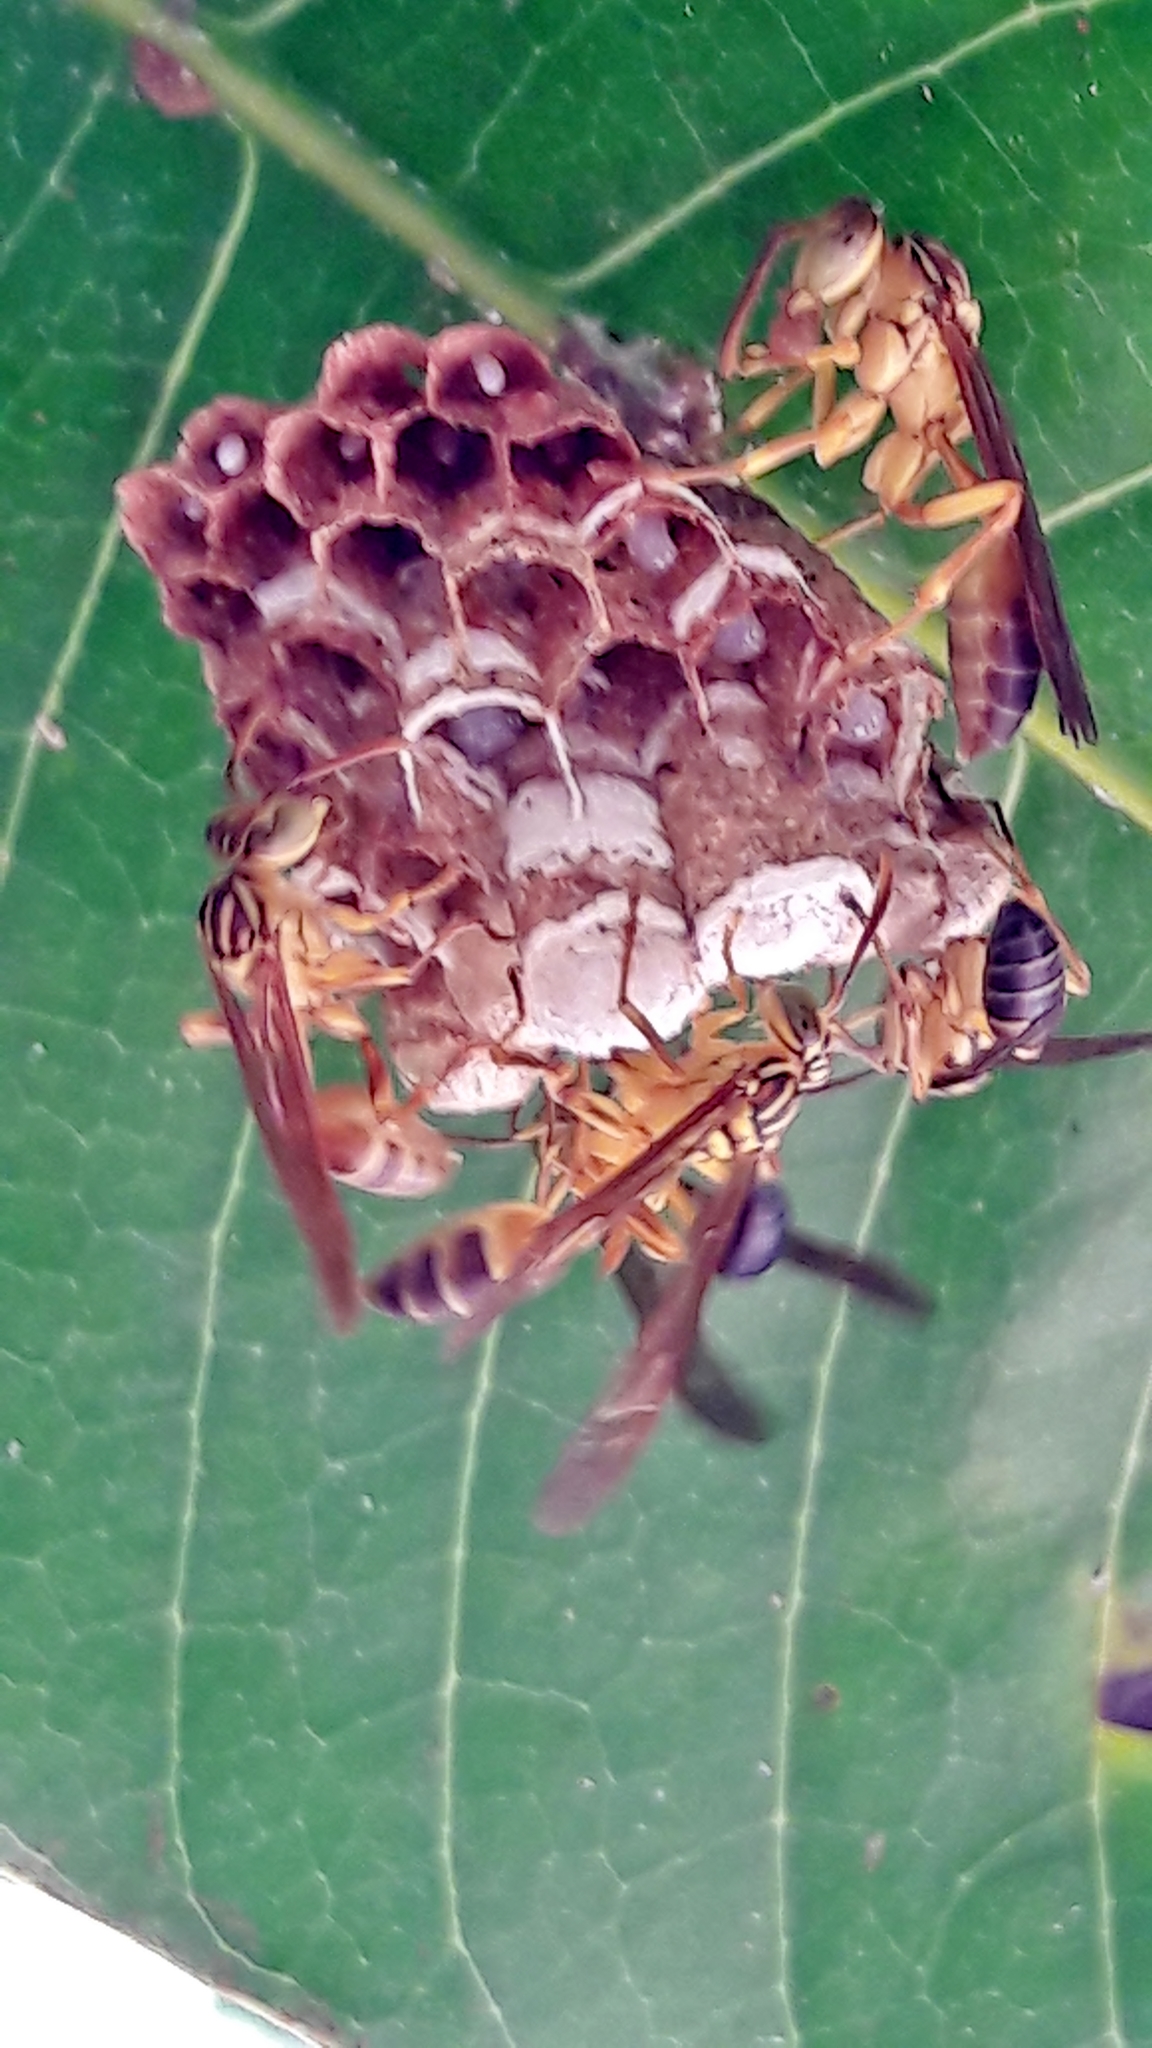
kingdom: Animalia
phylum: Arthropoda
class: Insecta
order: Hymenoptera
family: Vespidae
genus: Mischocyttarus
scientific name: Mischocyttarus cerberus
